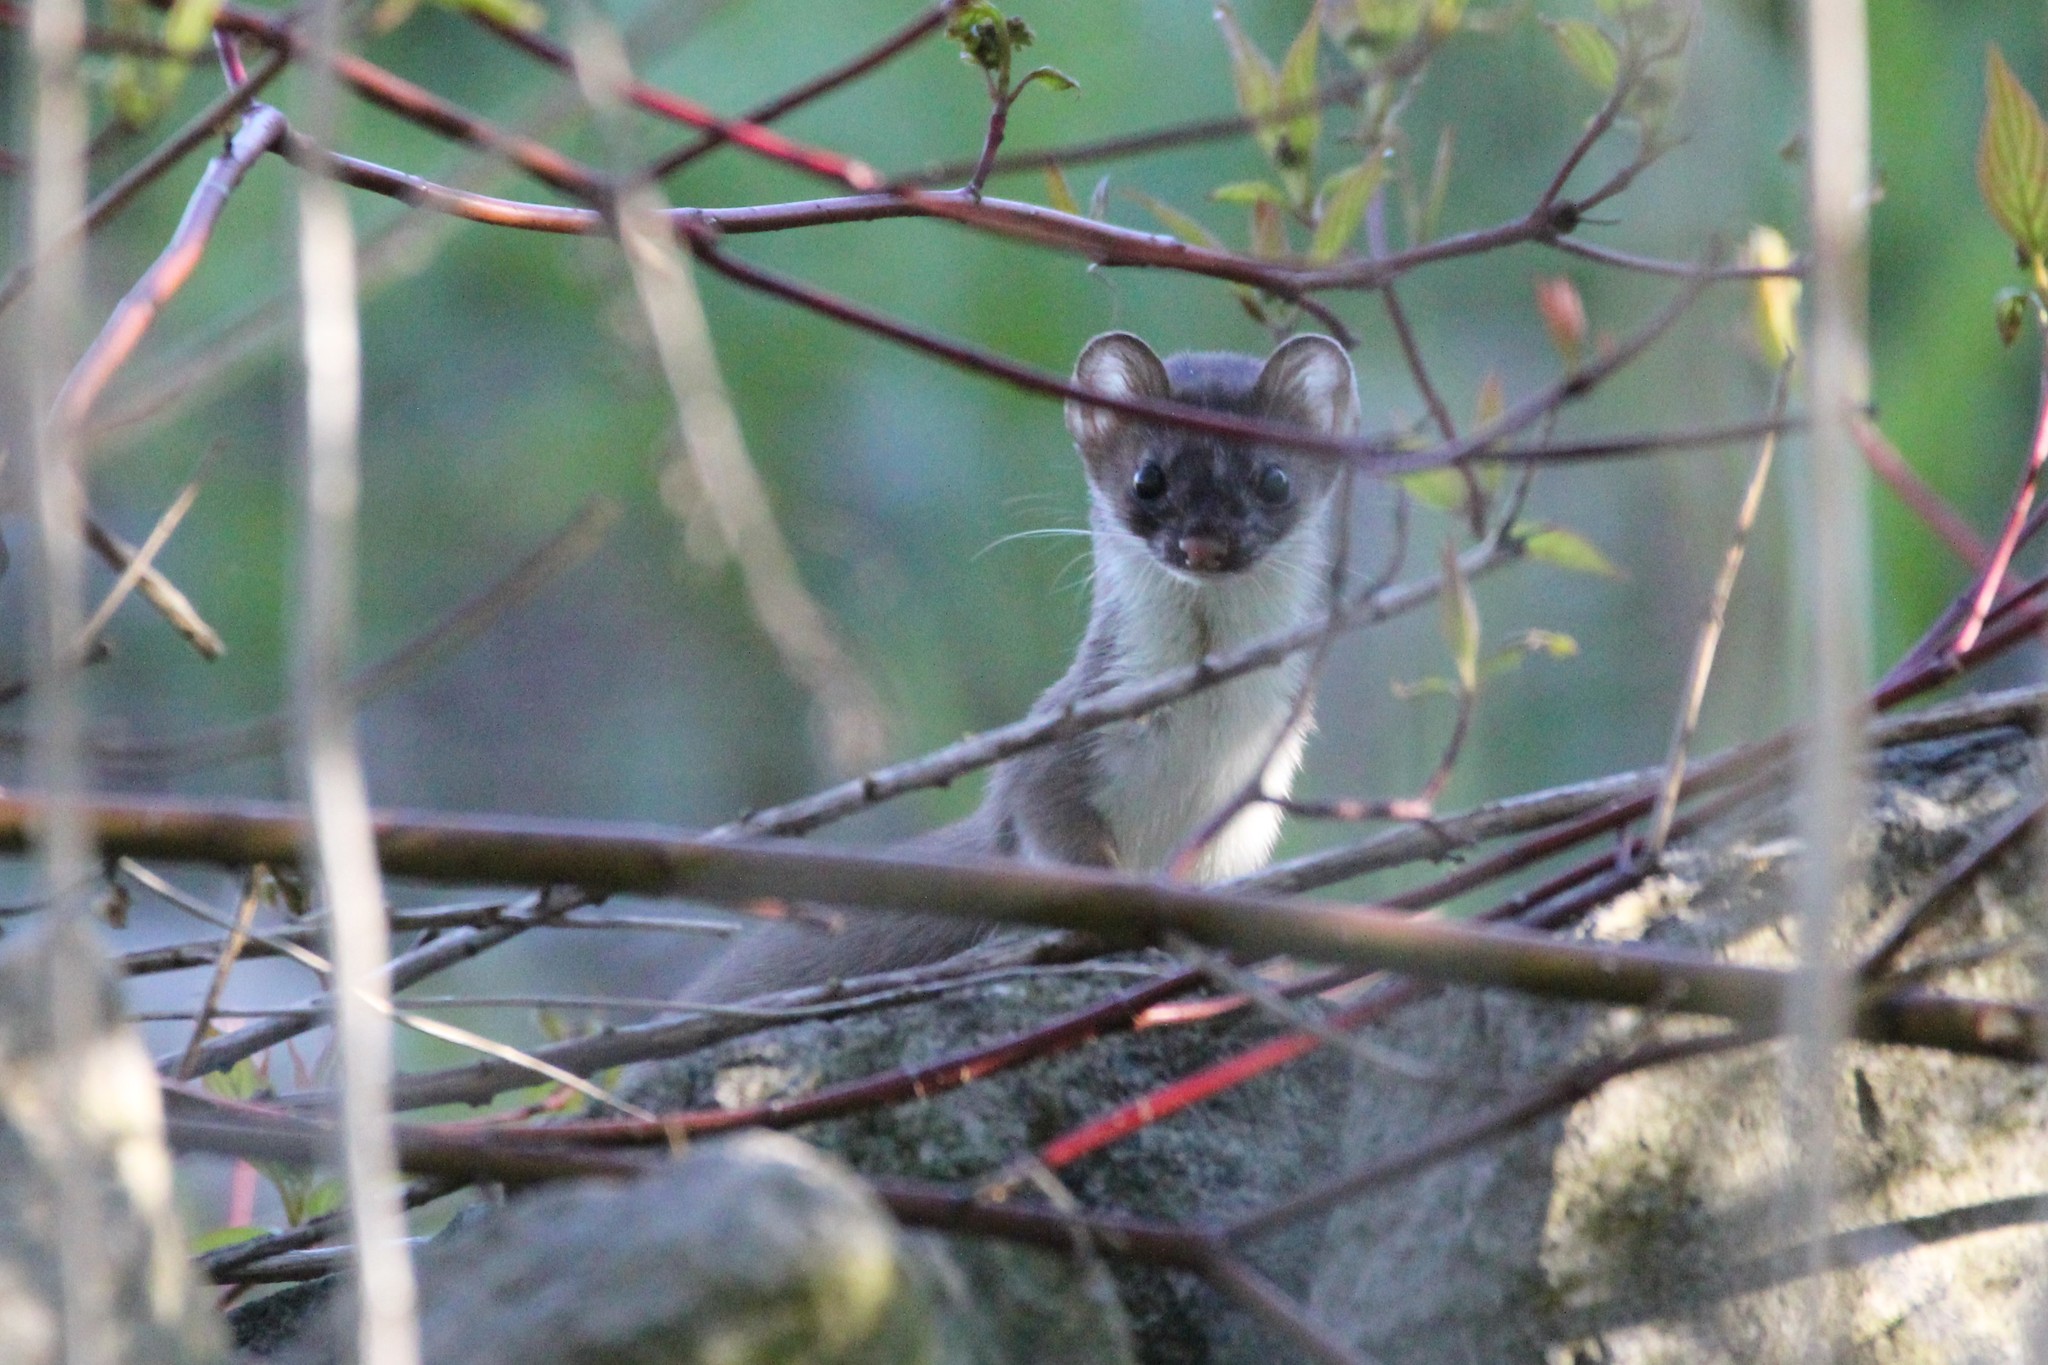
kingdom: Animalia
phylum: Chordata
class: Mammalia
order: Carnivora
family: Mustelidae
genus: Mustela
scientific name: Mustela erminea
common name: Stoat
